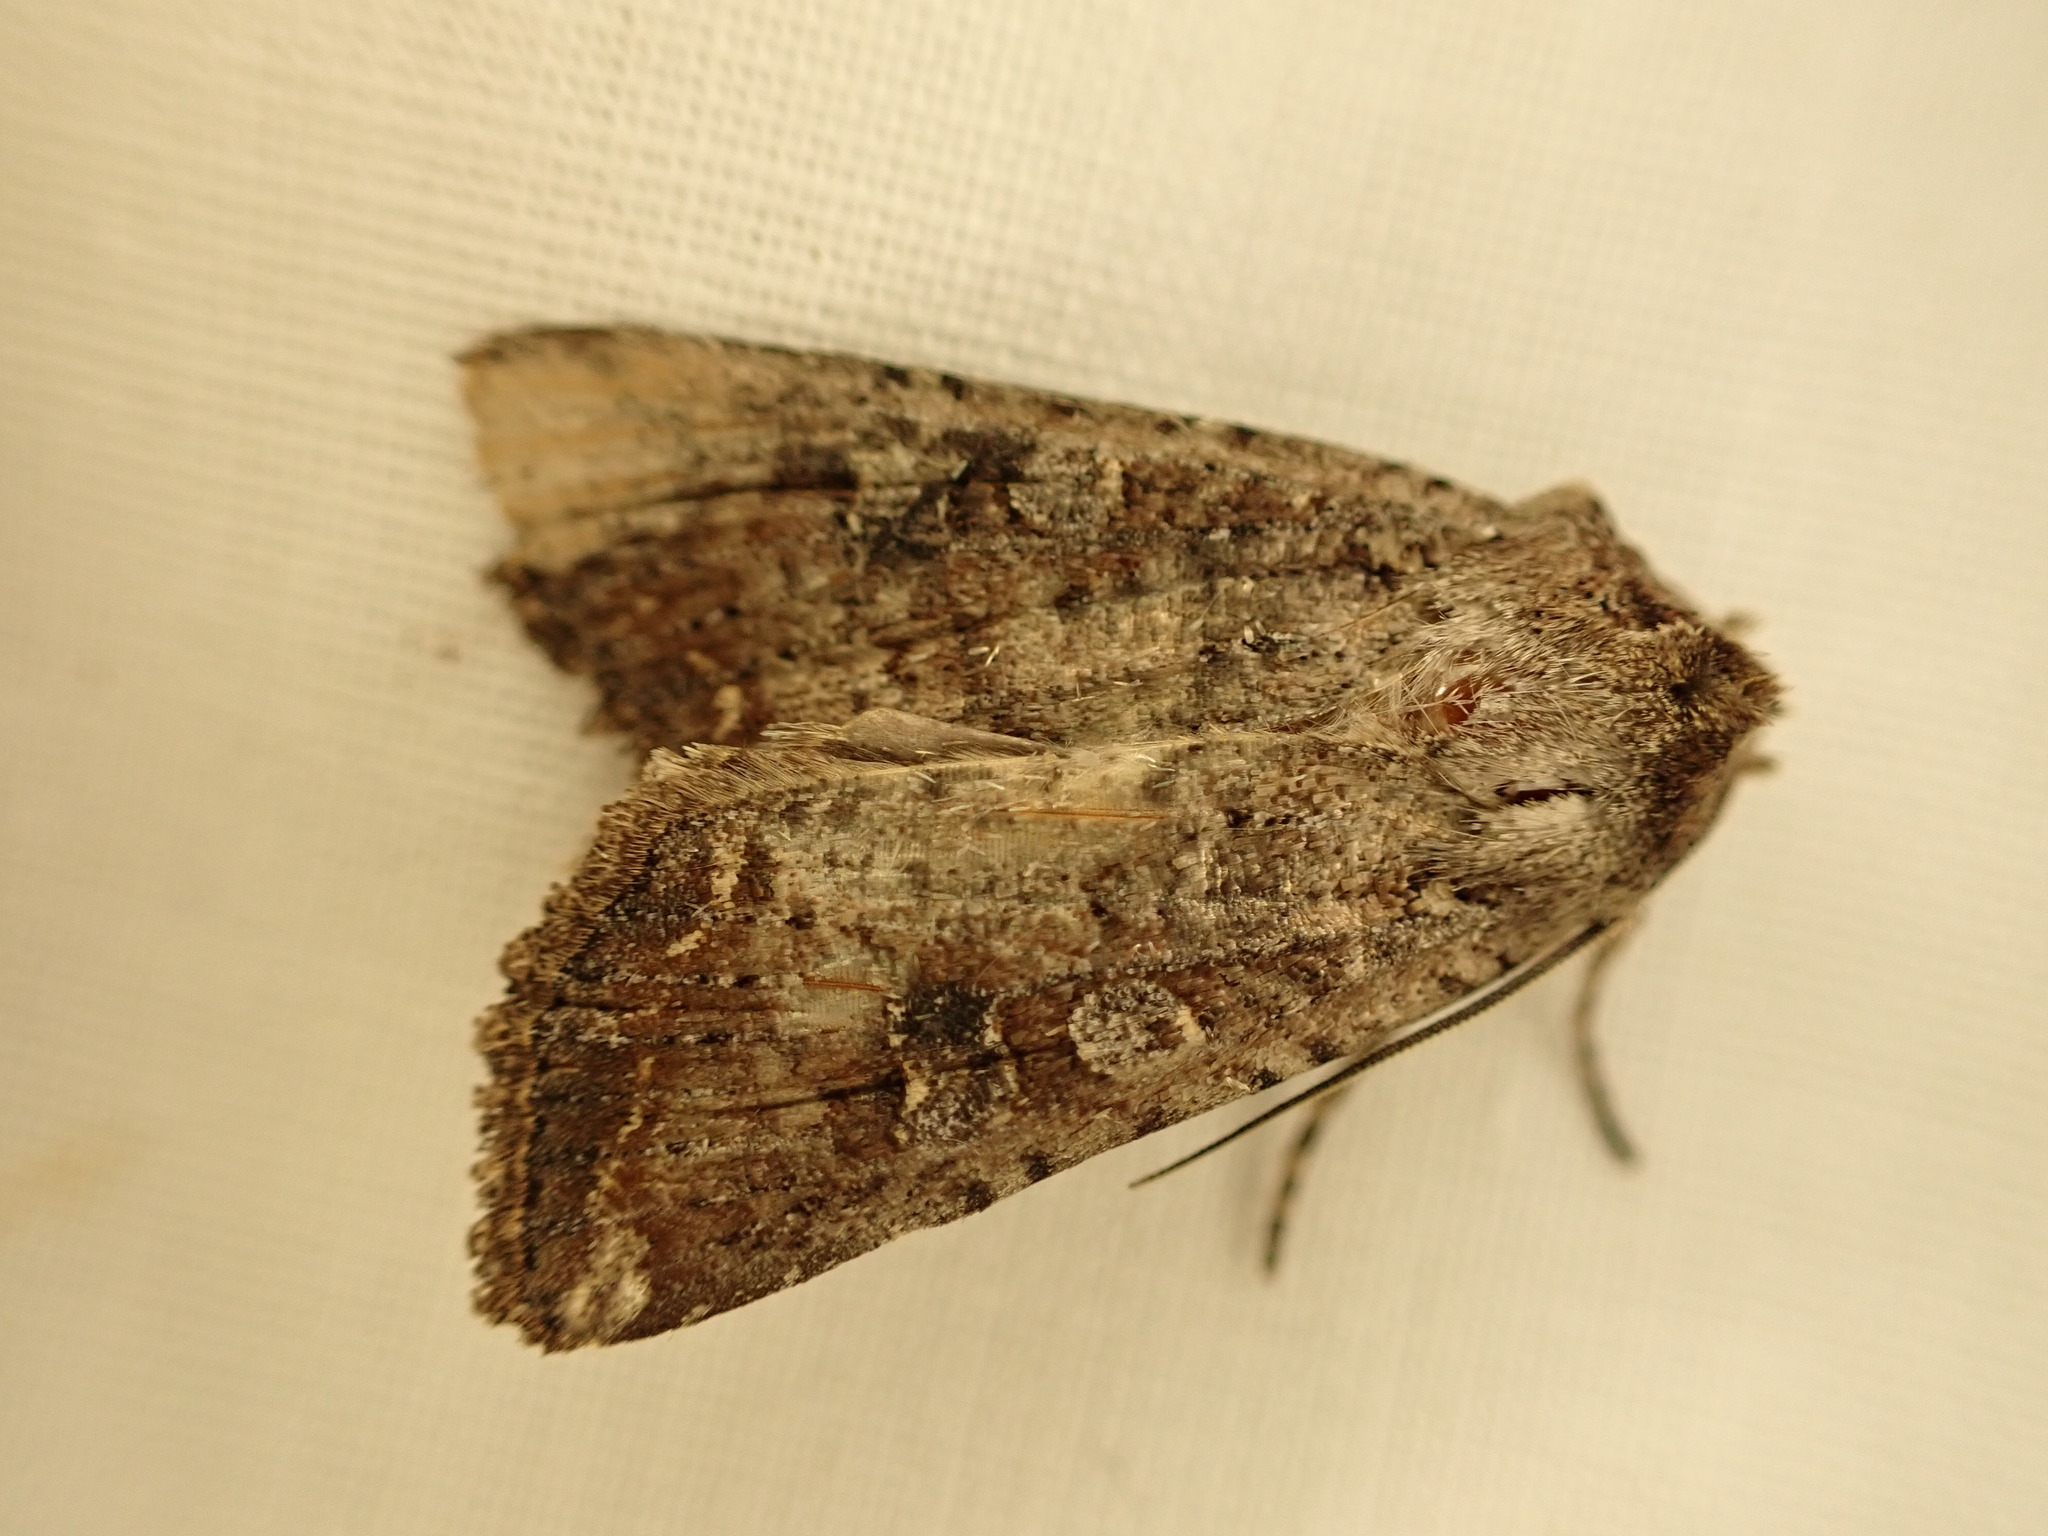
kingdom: Animalia
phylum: Arthropoda
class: Insecta
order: Lepidoptera
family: Noctuidae
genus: Ichneutica
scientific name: Ichneutica morosa
